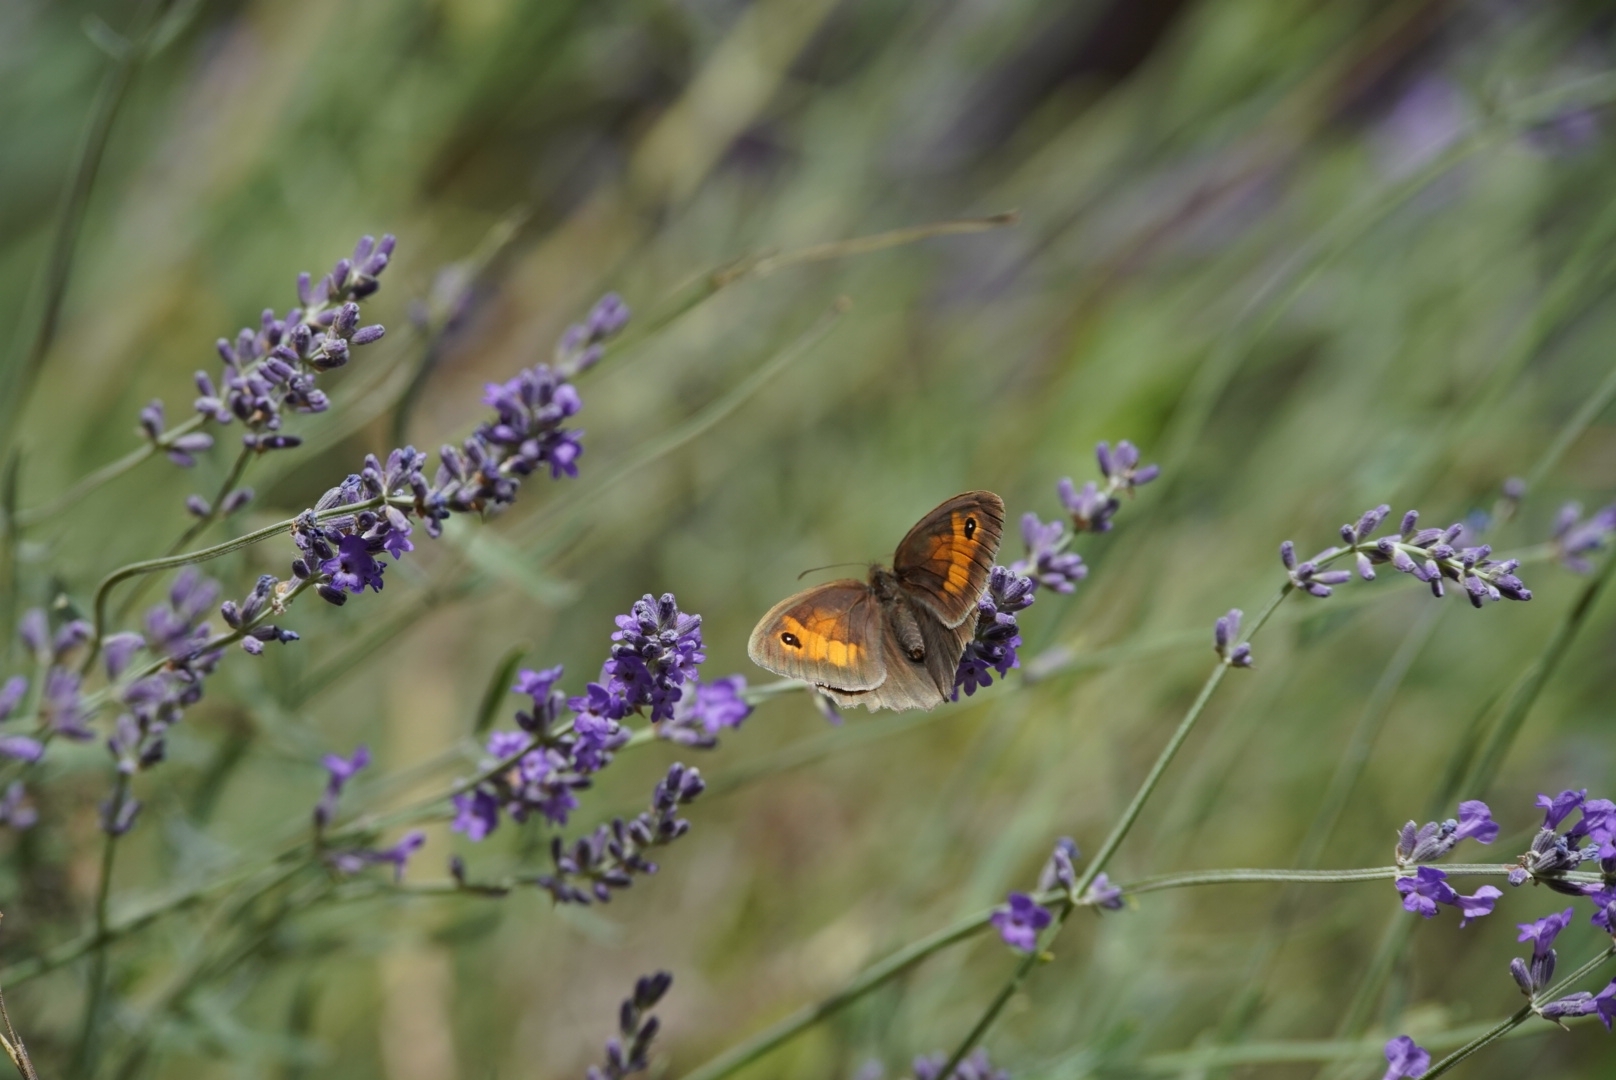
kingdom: Animalia
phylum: Arthropoda
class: Insecta
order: Lepidoptera
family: Nymphalidae
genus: Maniola
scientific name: Maniola jurtina
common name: Meadow brown
